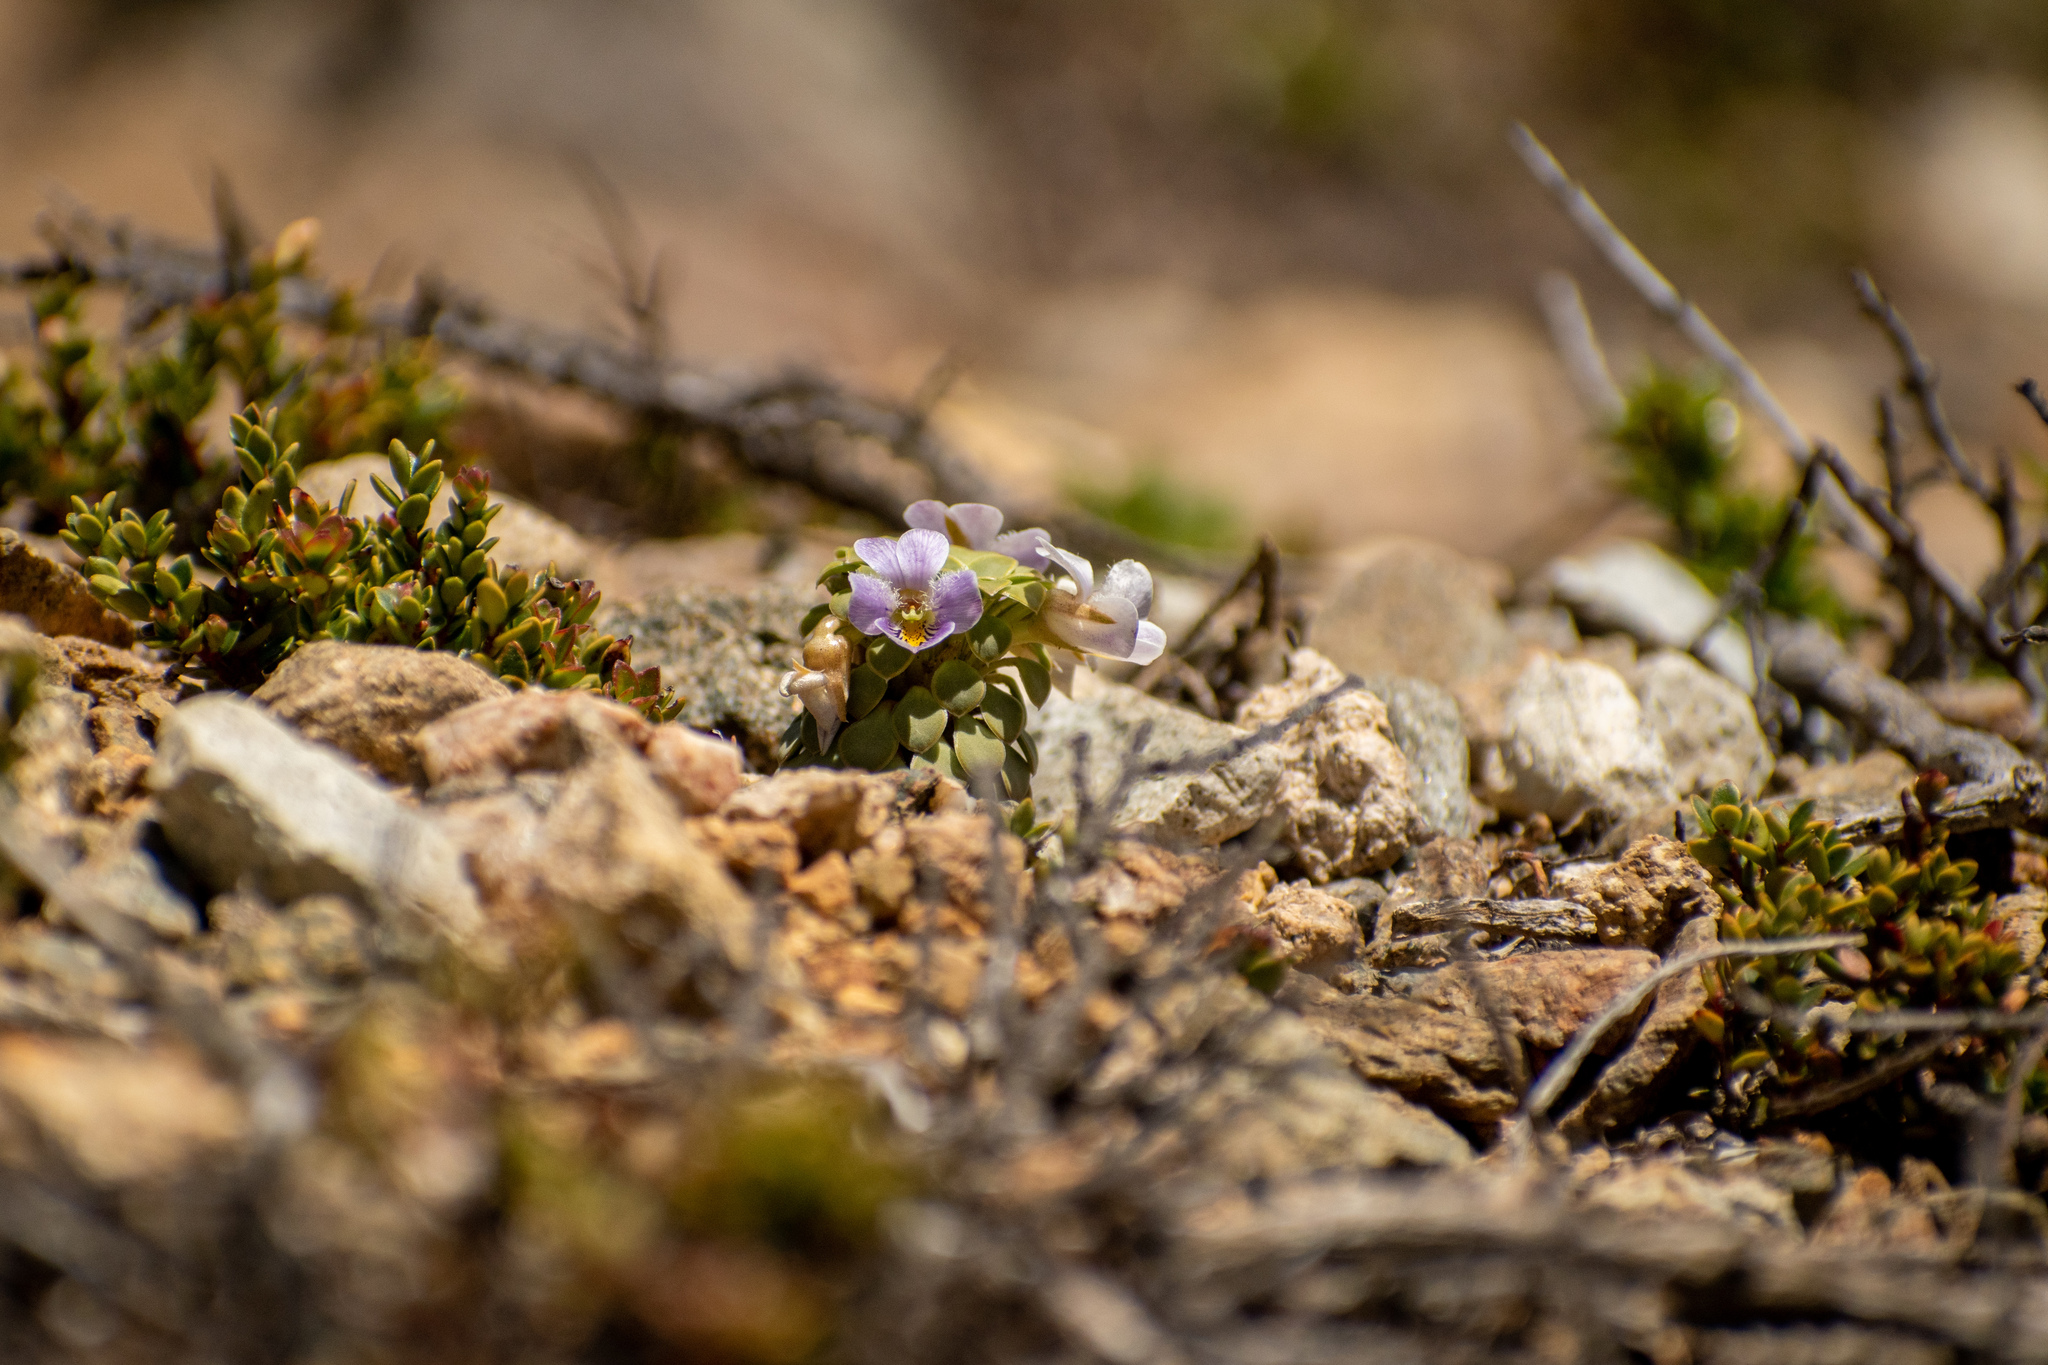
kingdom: Plantae
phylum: Tracheophyta
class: Magnoliopsida
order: Malpighiales
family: Violaceae
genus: Viola
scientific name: Viola petraea
